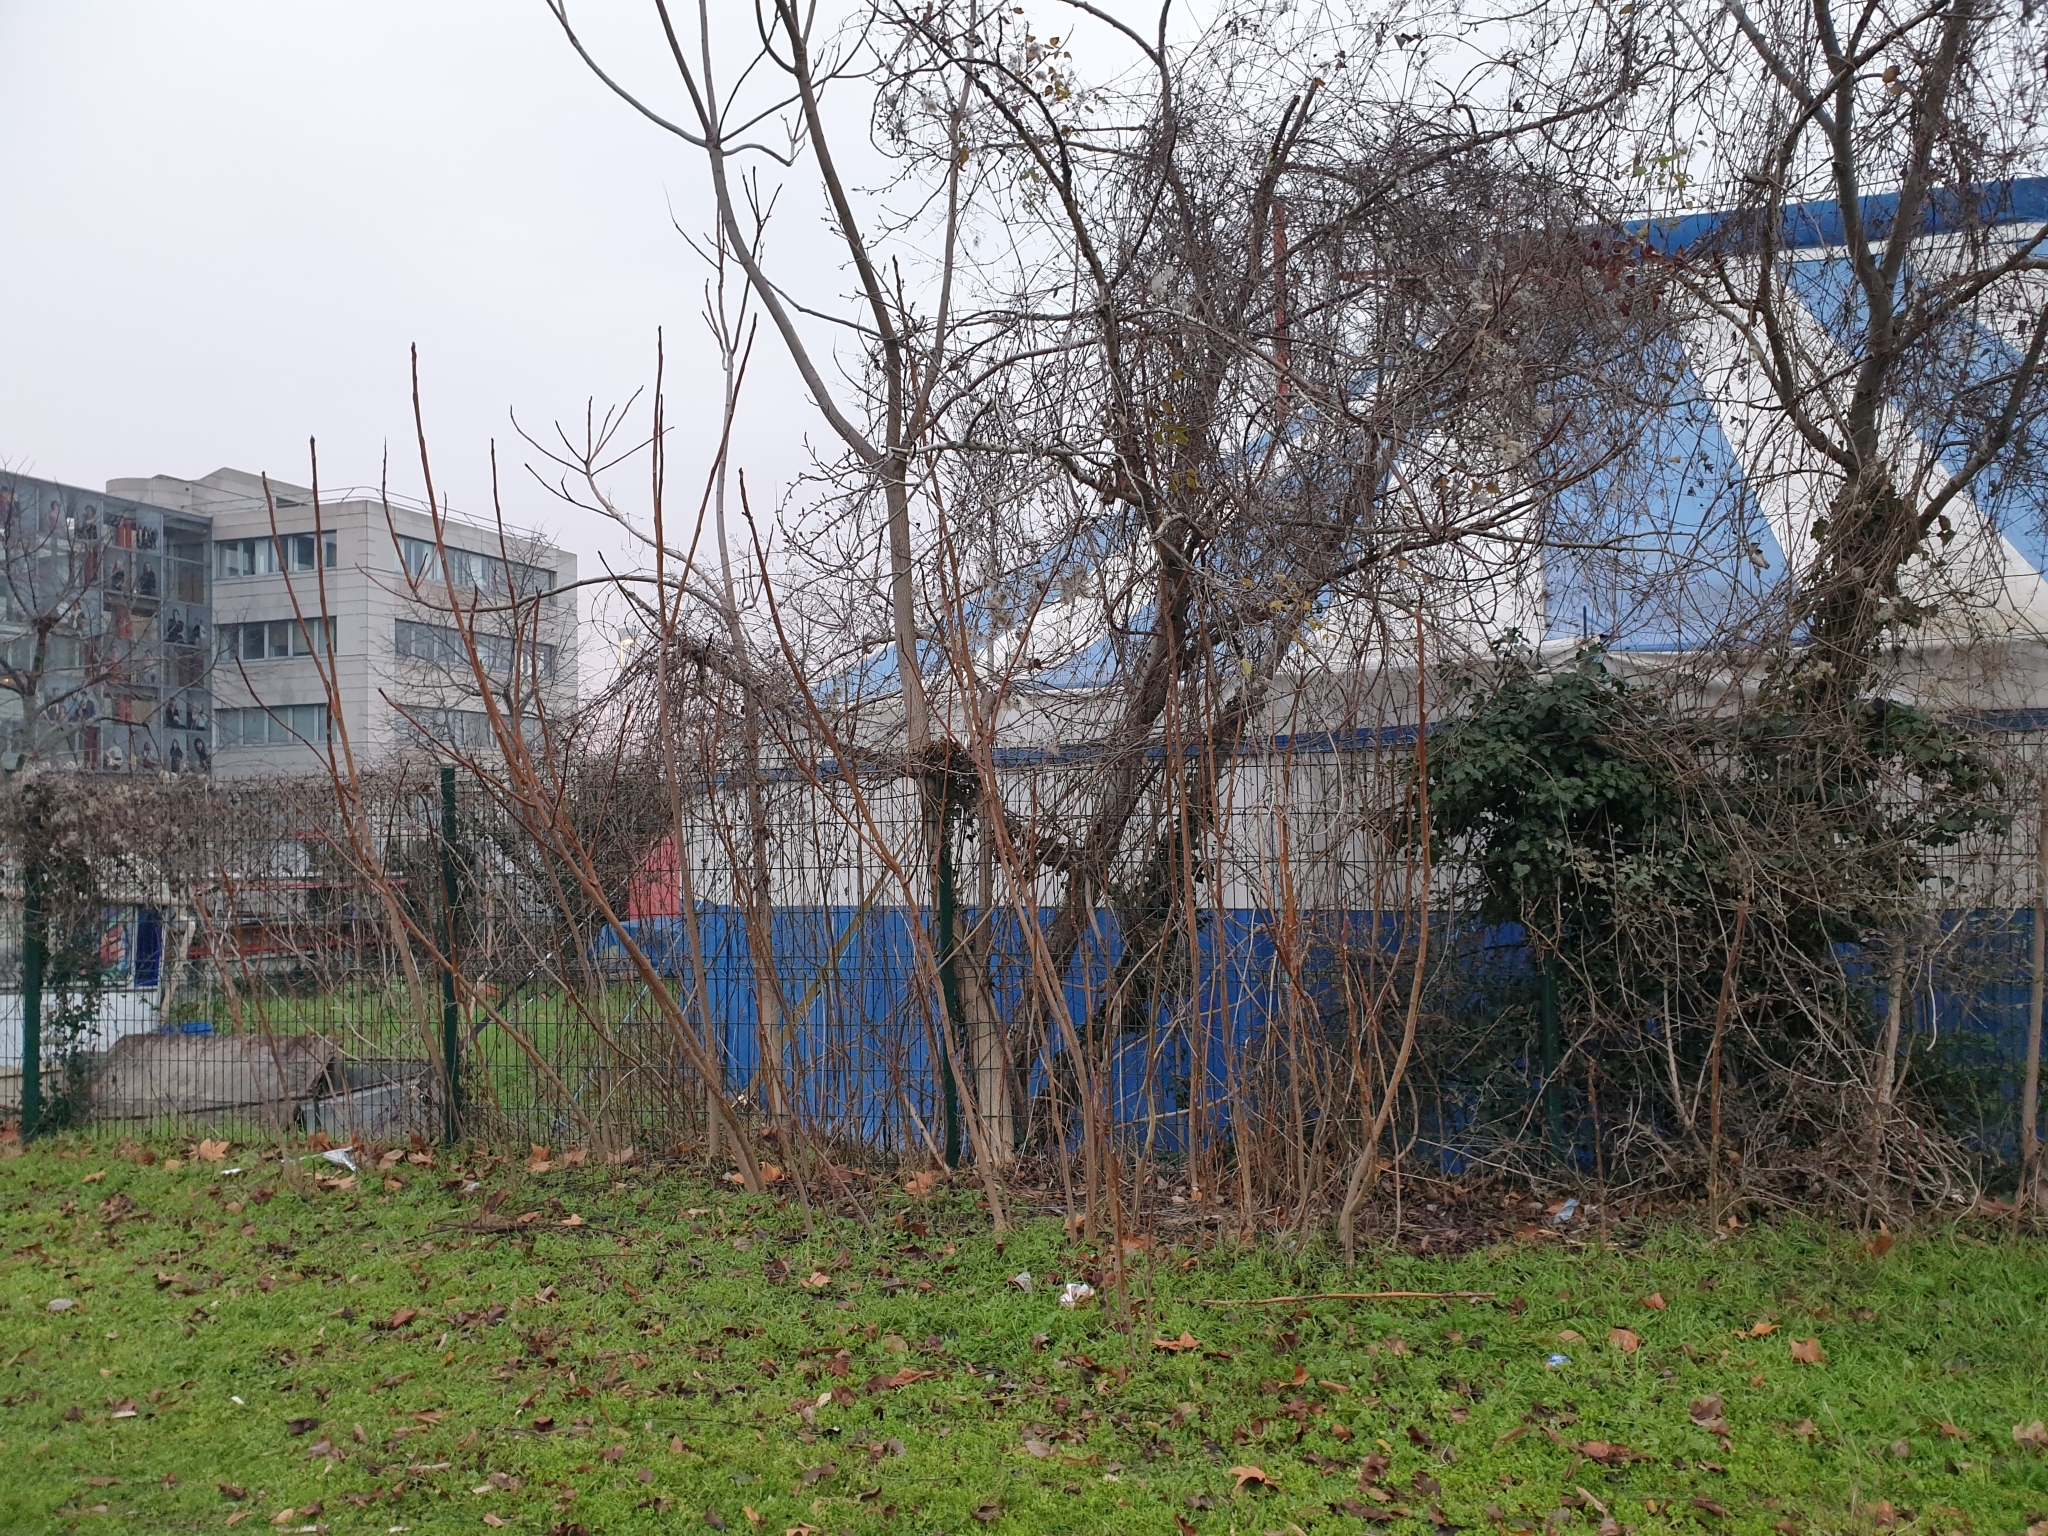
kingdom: Plantae
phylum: Tracheophyta
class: Magnoliopsida
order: Sapindales
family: Simaroubaceae
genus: Ailanthus
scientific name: Ailanthus altissima
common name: Tree-of-heaven
